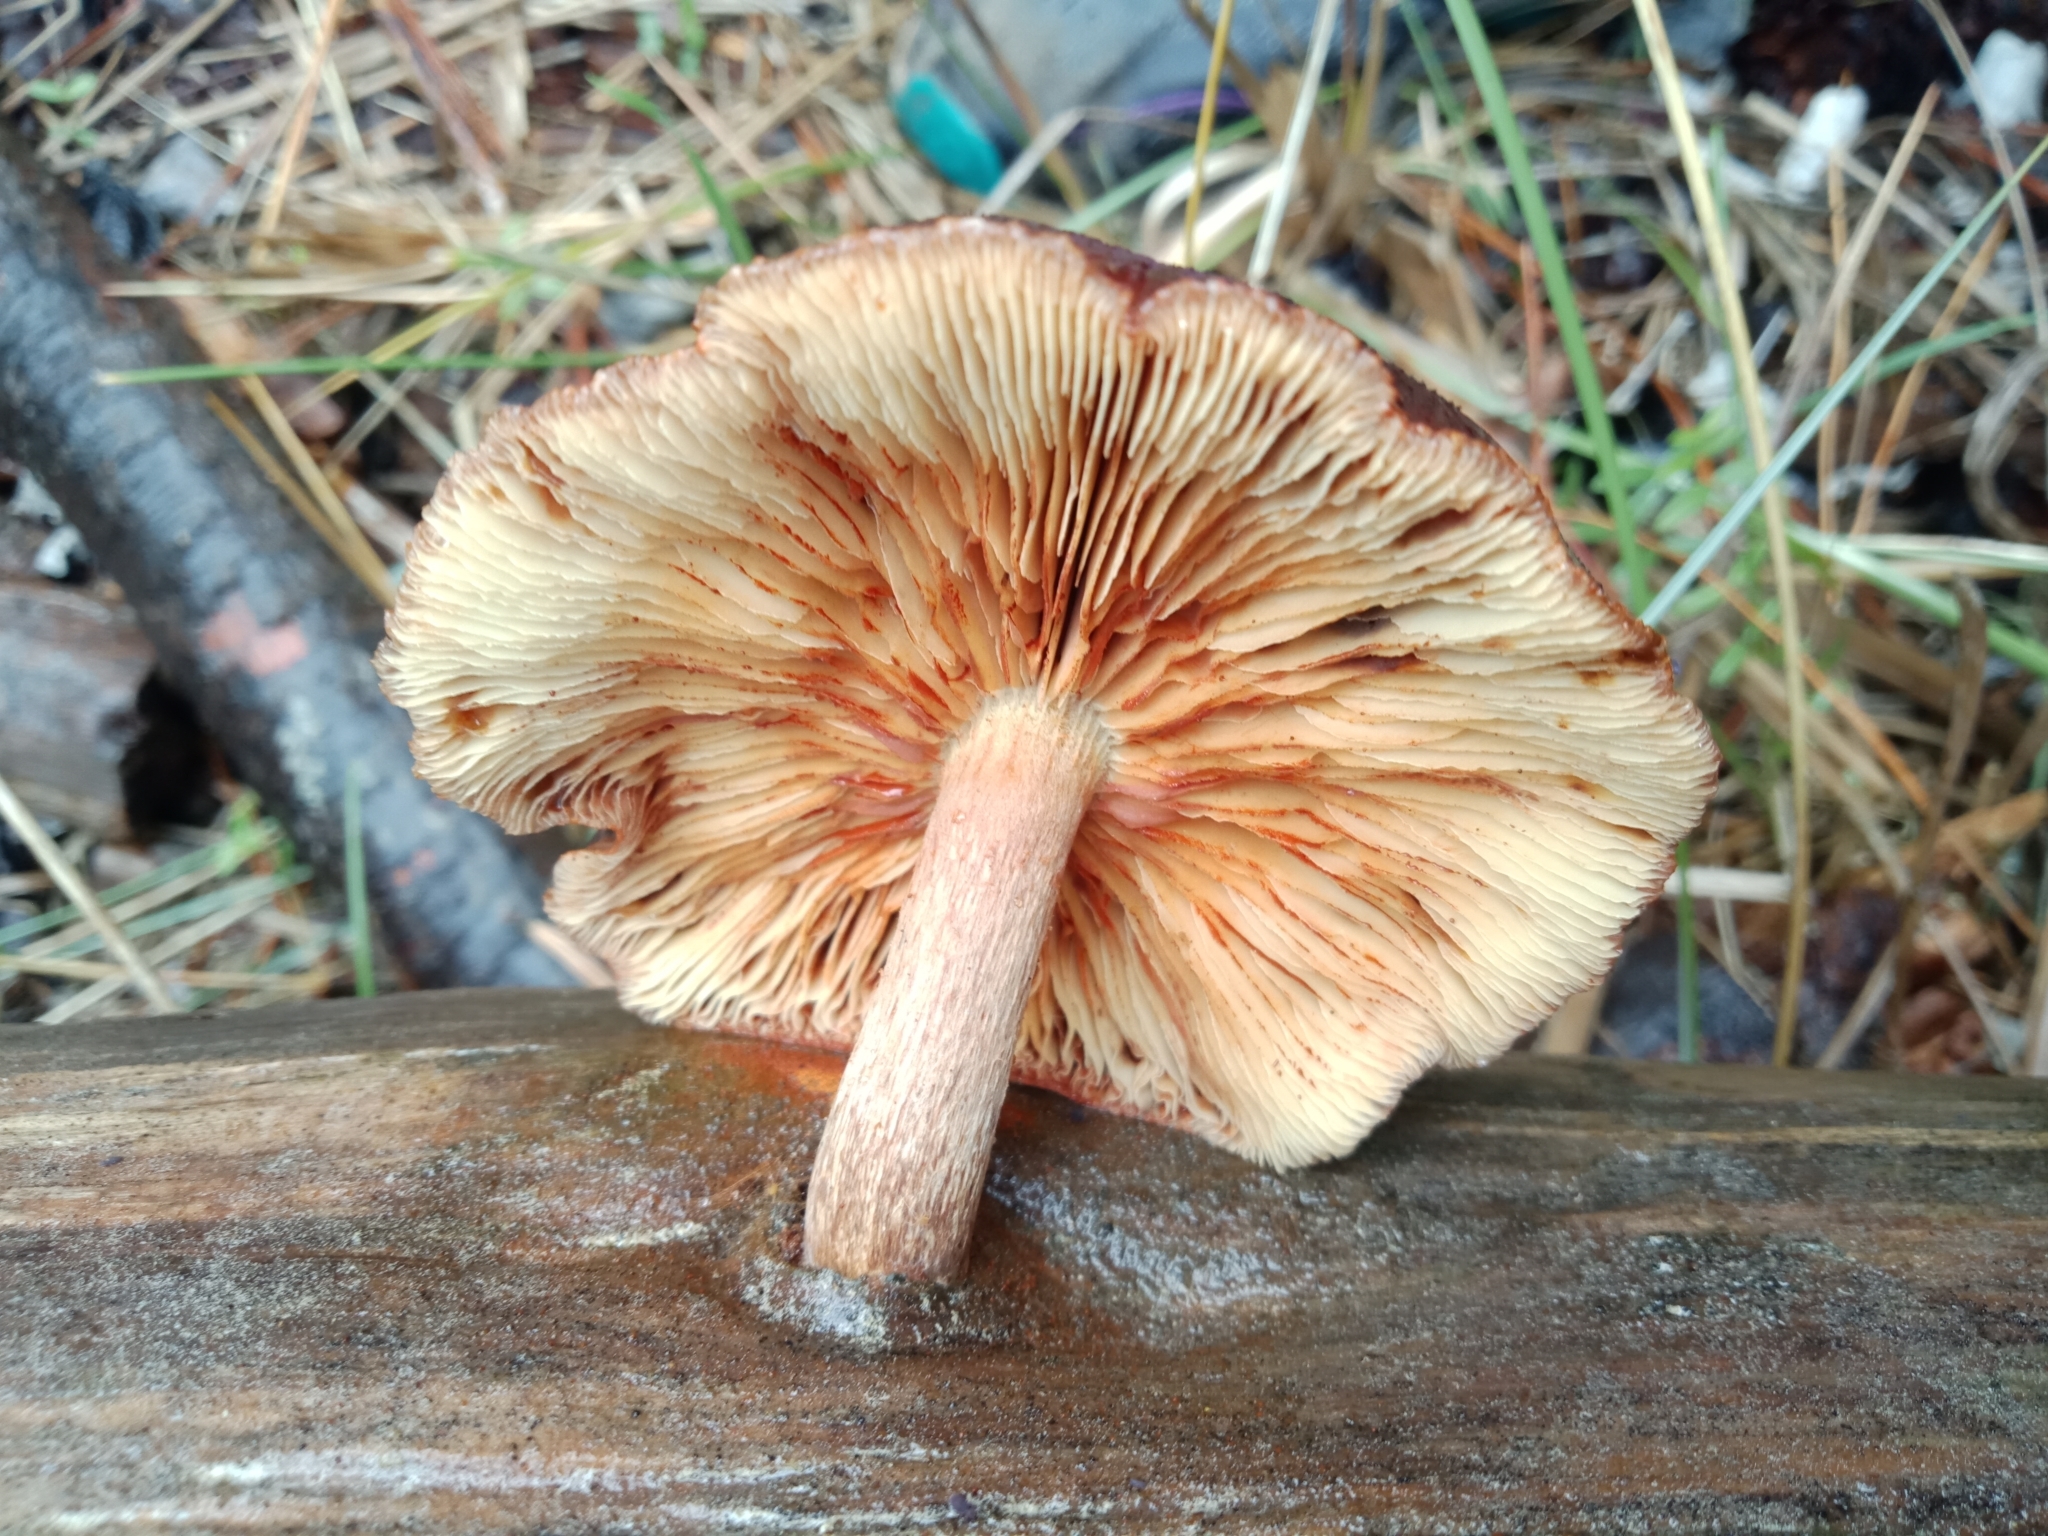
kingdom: Fungi
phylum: Basidiomycota
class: Agaricomycetes
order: Agaricales
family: Hymenogastraceae
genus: Gymnopilus
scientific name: Gymnopilus purpuratus
